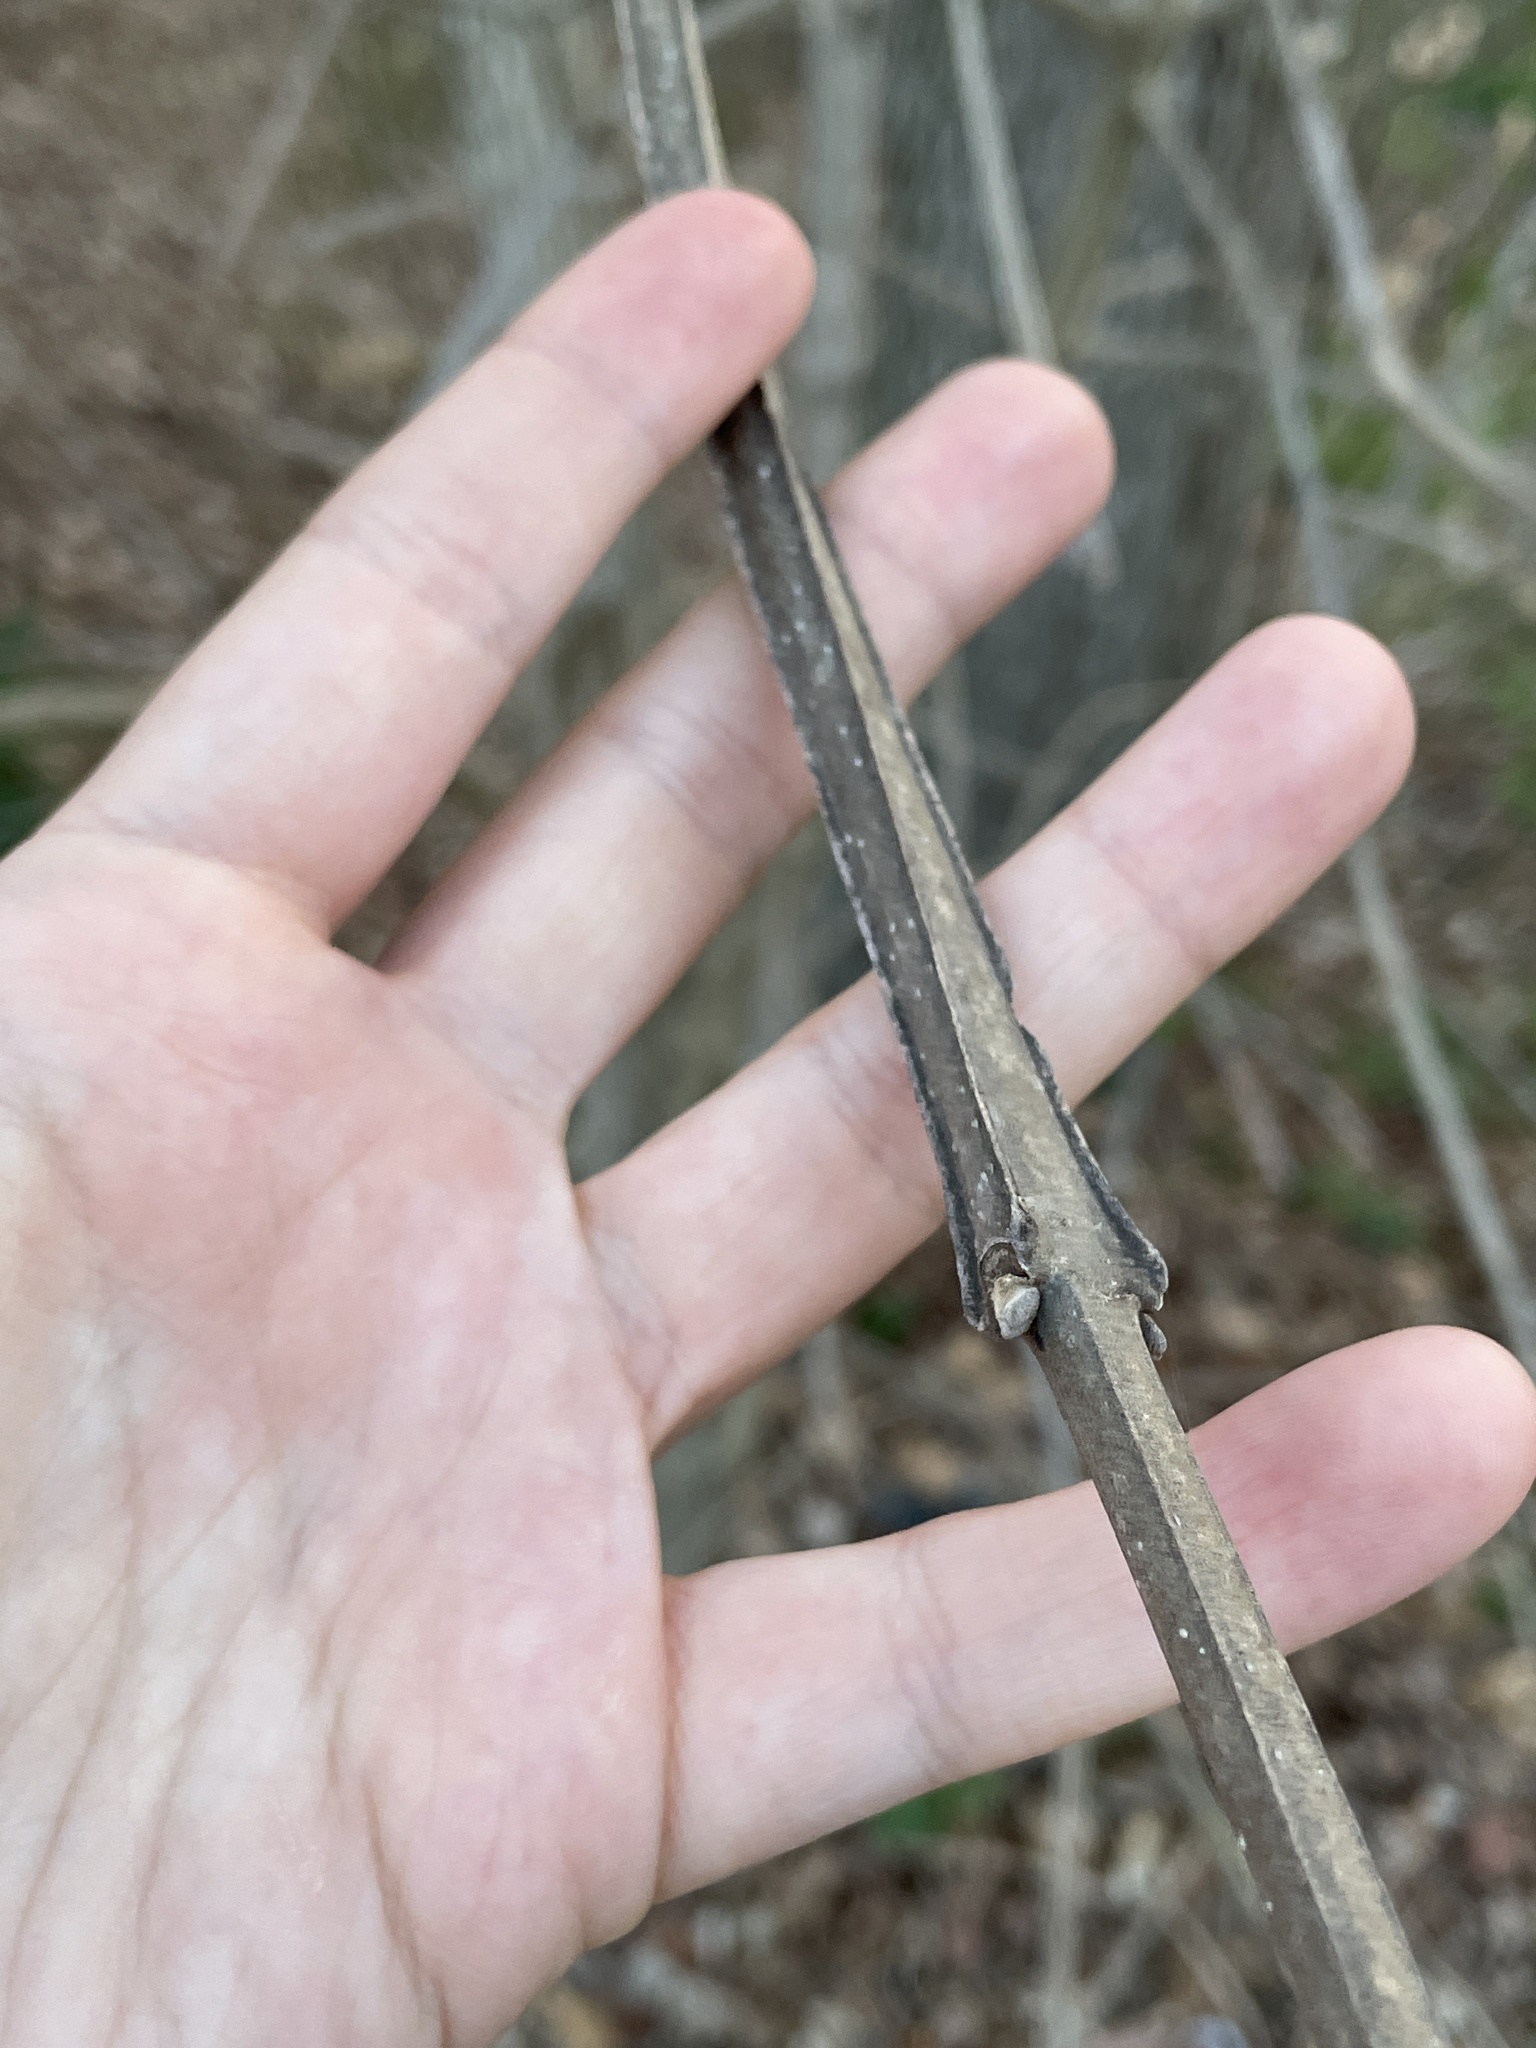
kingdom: Plantae
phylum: Tracheophyta
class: Magnoliopsida
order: Lamiales
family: Oleaceae
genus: Fraxinus
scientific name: Fraxinus quadrangulata
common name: Blue ash
